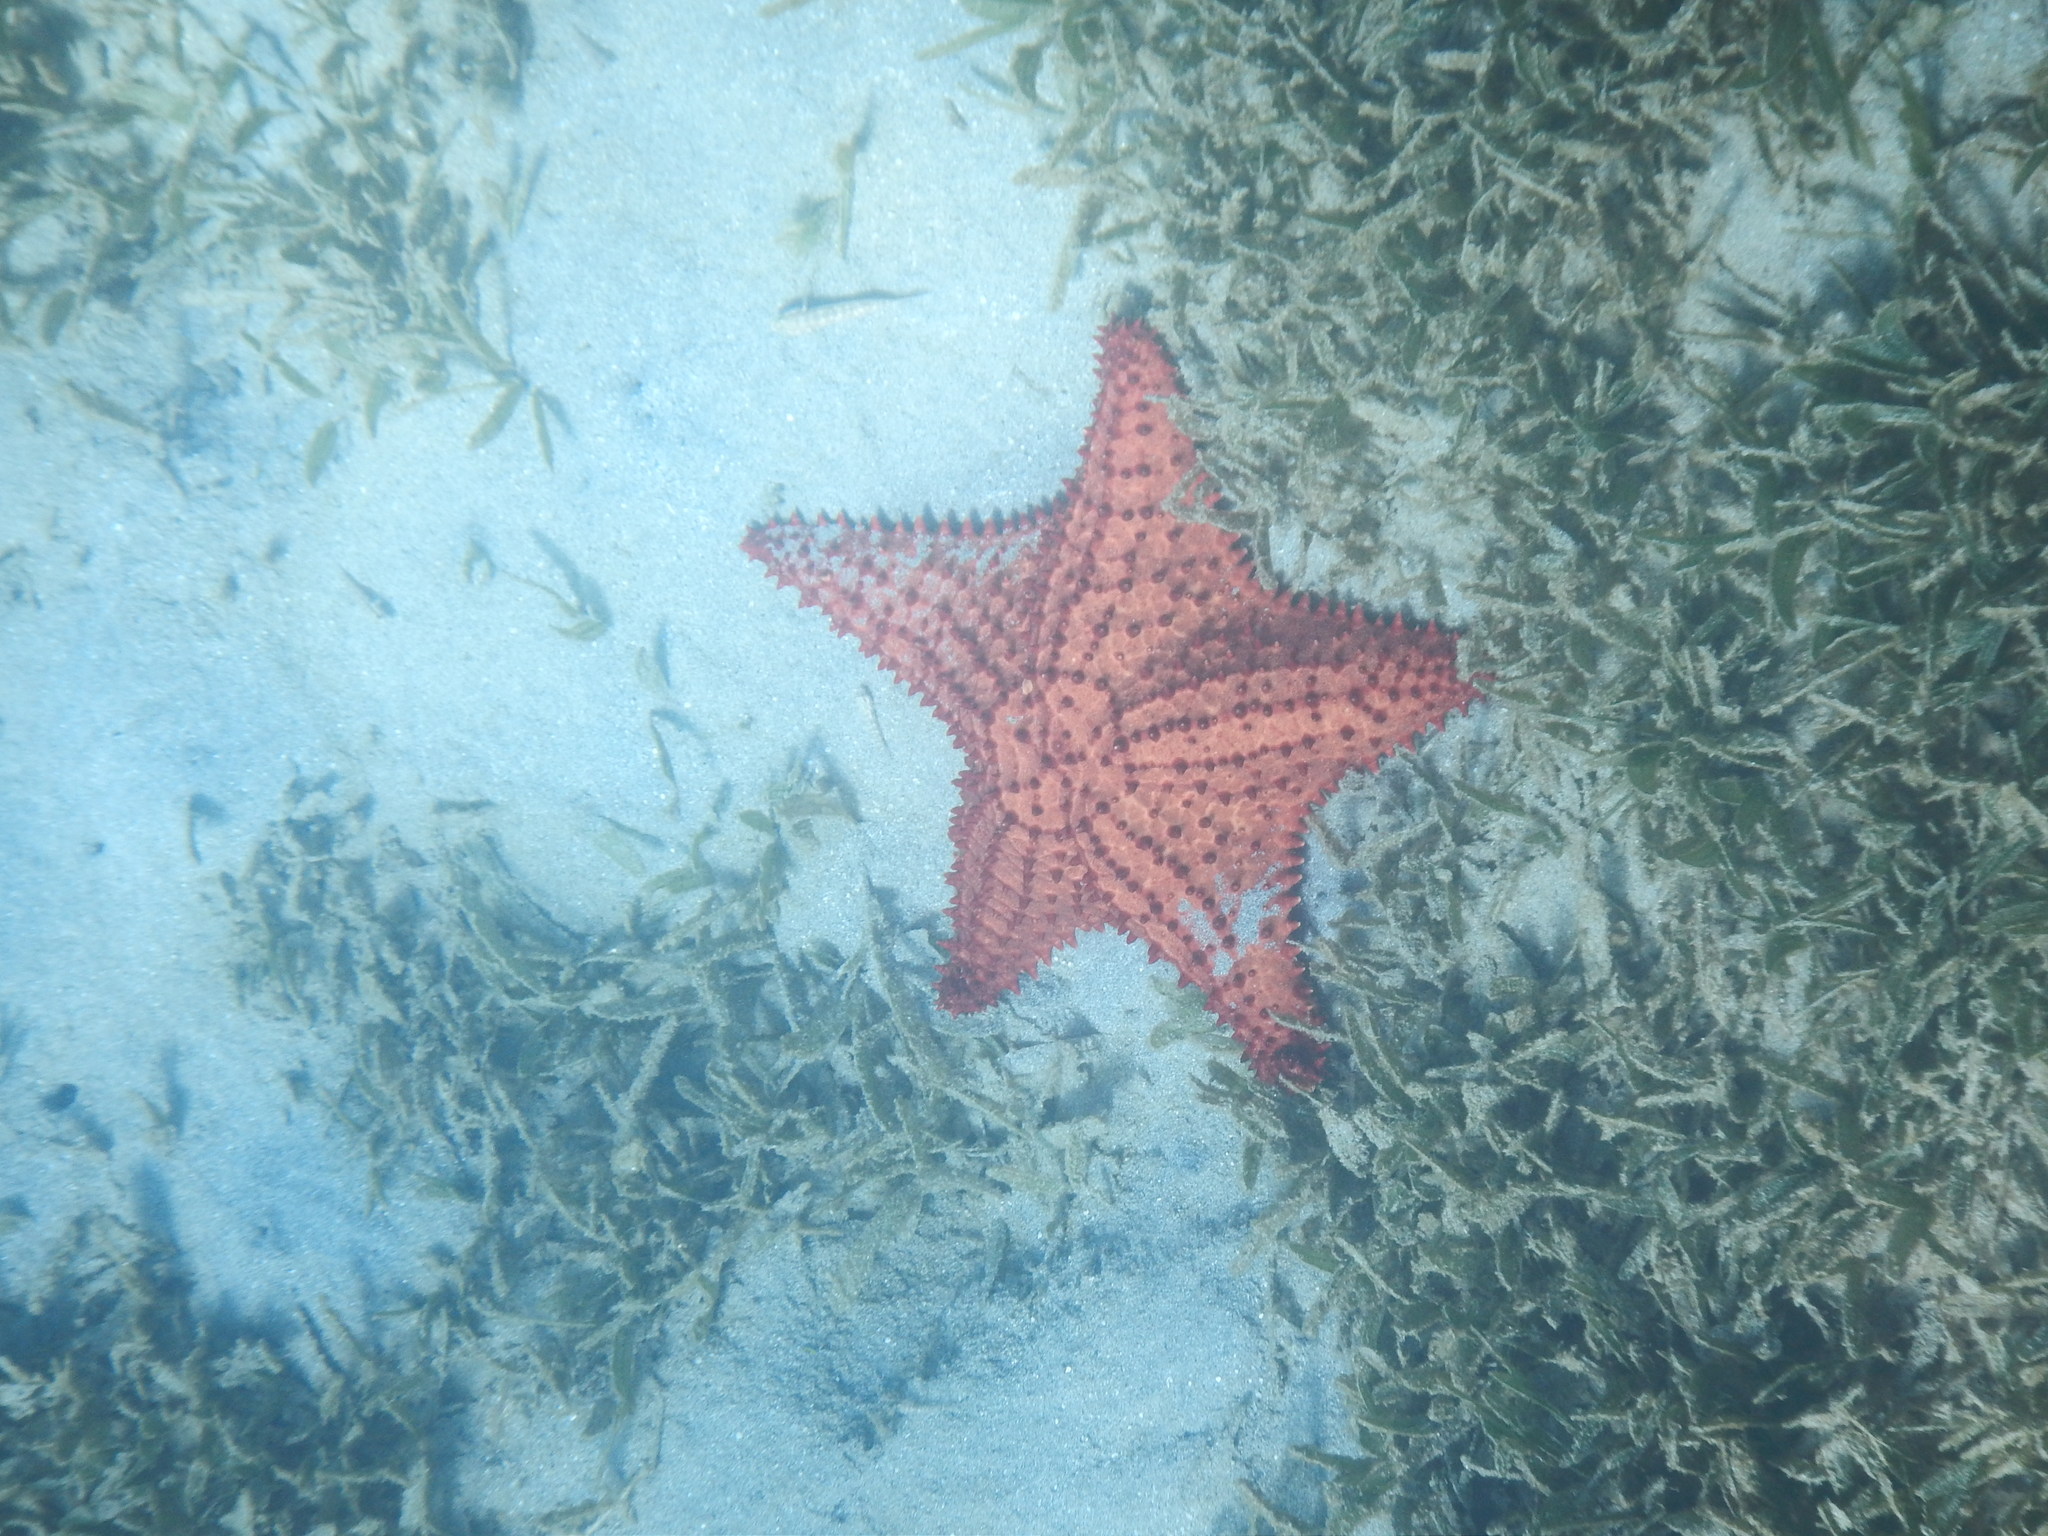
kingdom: Animalia
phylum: Echinodermata
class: Asteroidea
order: Valvatida
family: Oreasteridae
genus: Oreaster
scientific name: Oreaster reticulatus
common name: Cushion sea star
